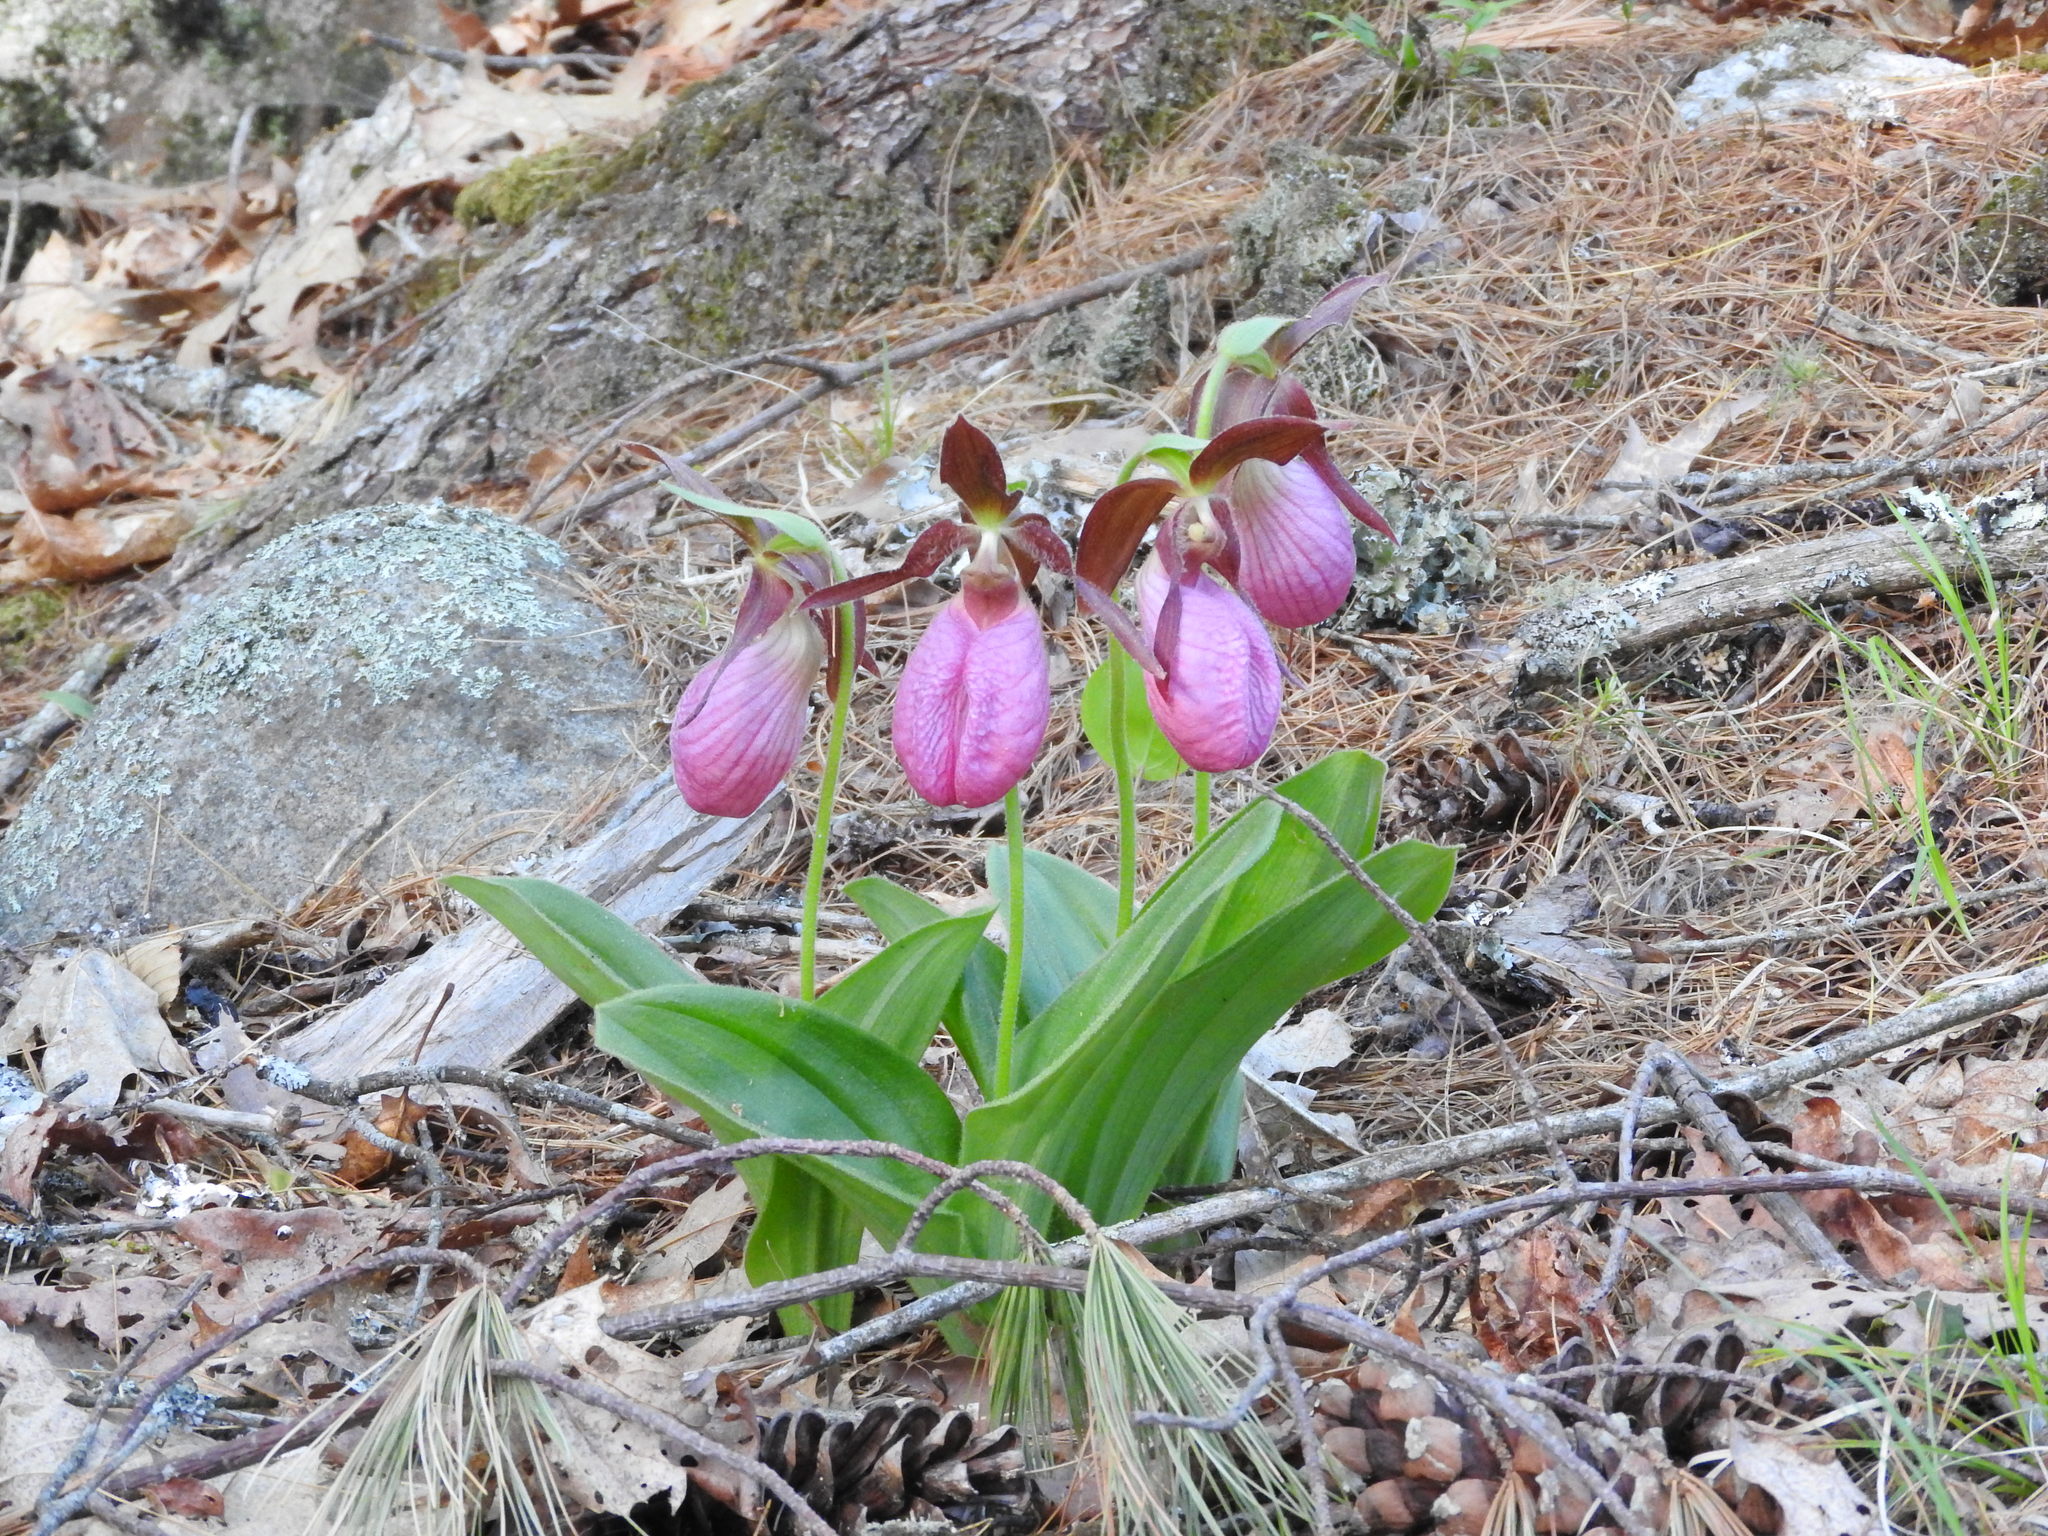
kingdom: Plantae
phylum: Tracheophyta
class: Liliopsida
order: Asparagales
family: Orchidaceae
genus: Cypripedium
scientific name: Cypripedium acaule
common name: Pink lady's-slipper
